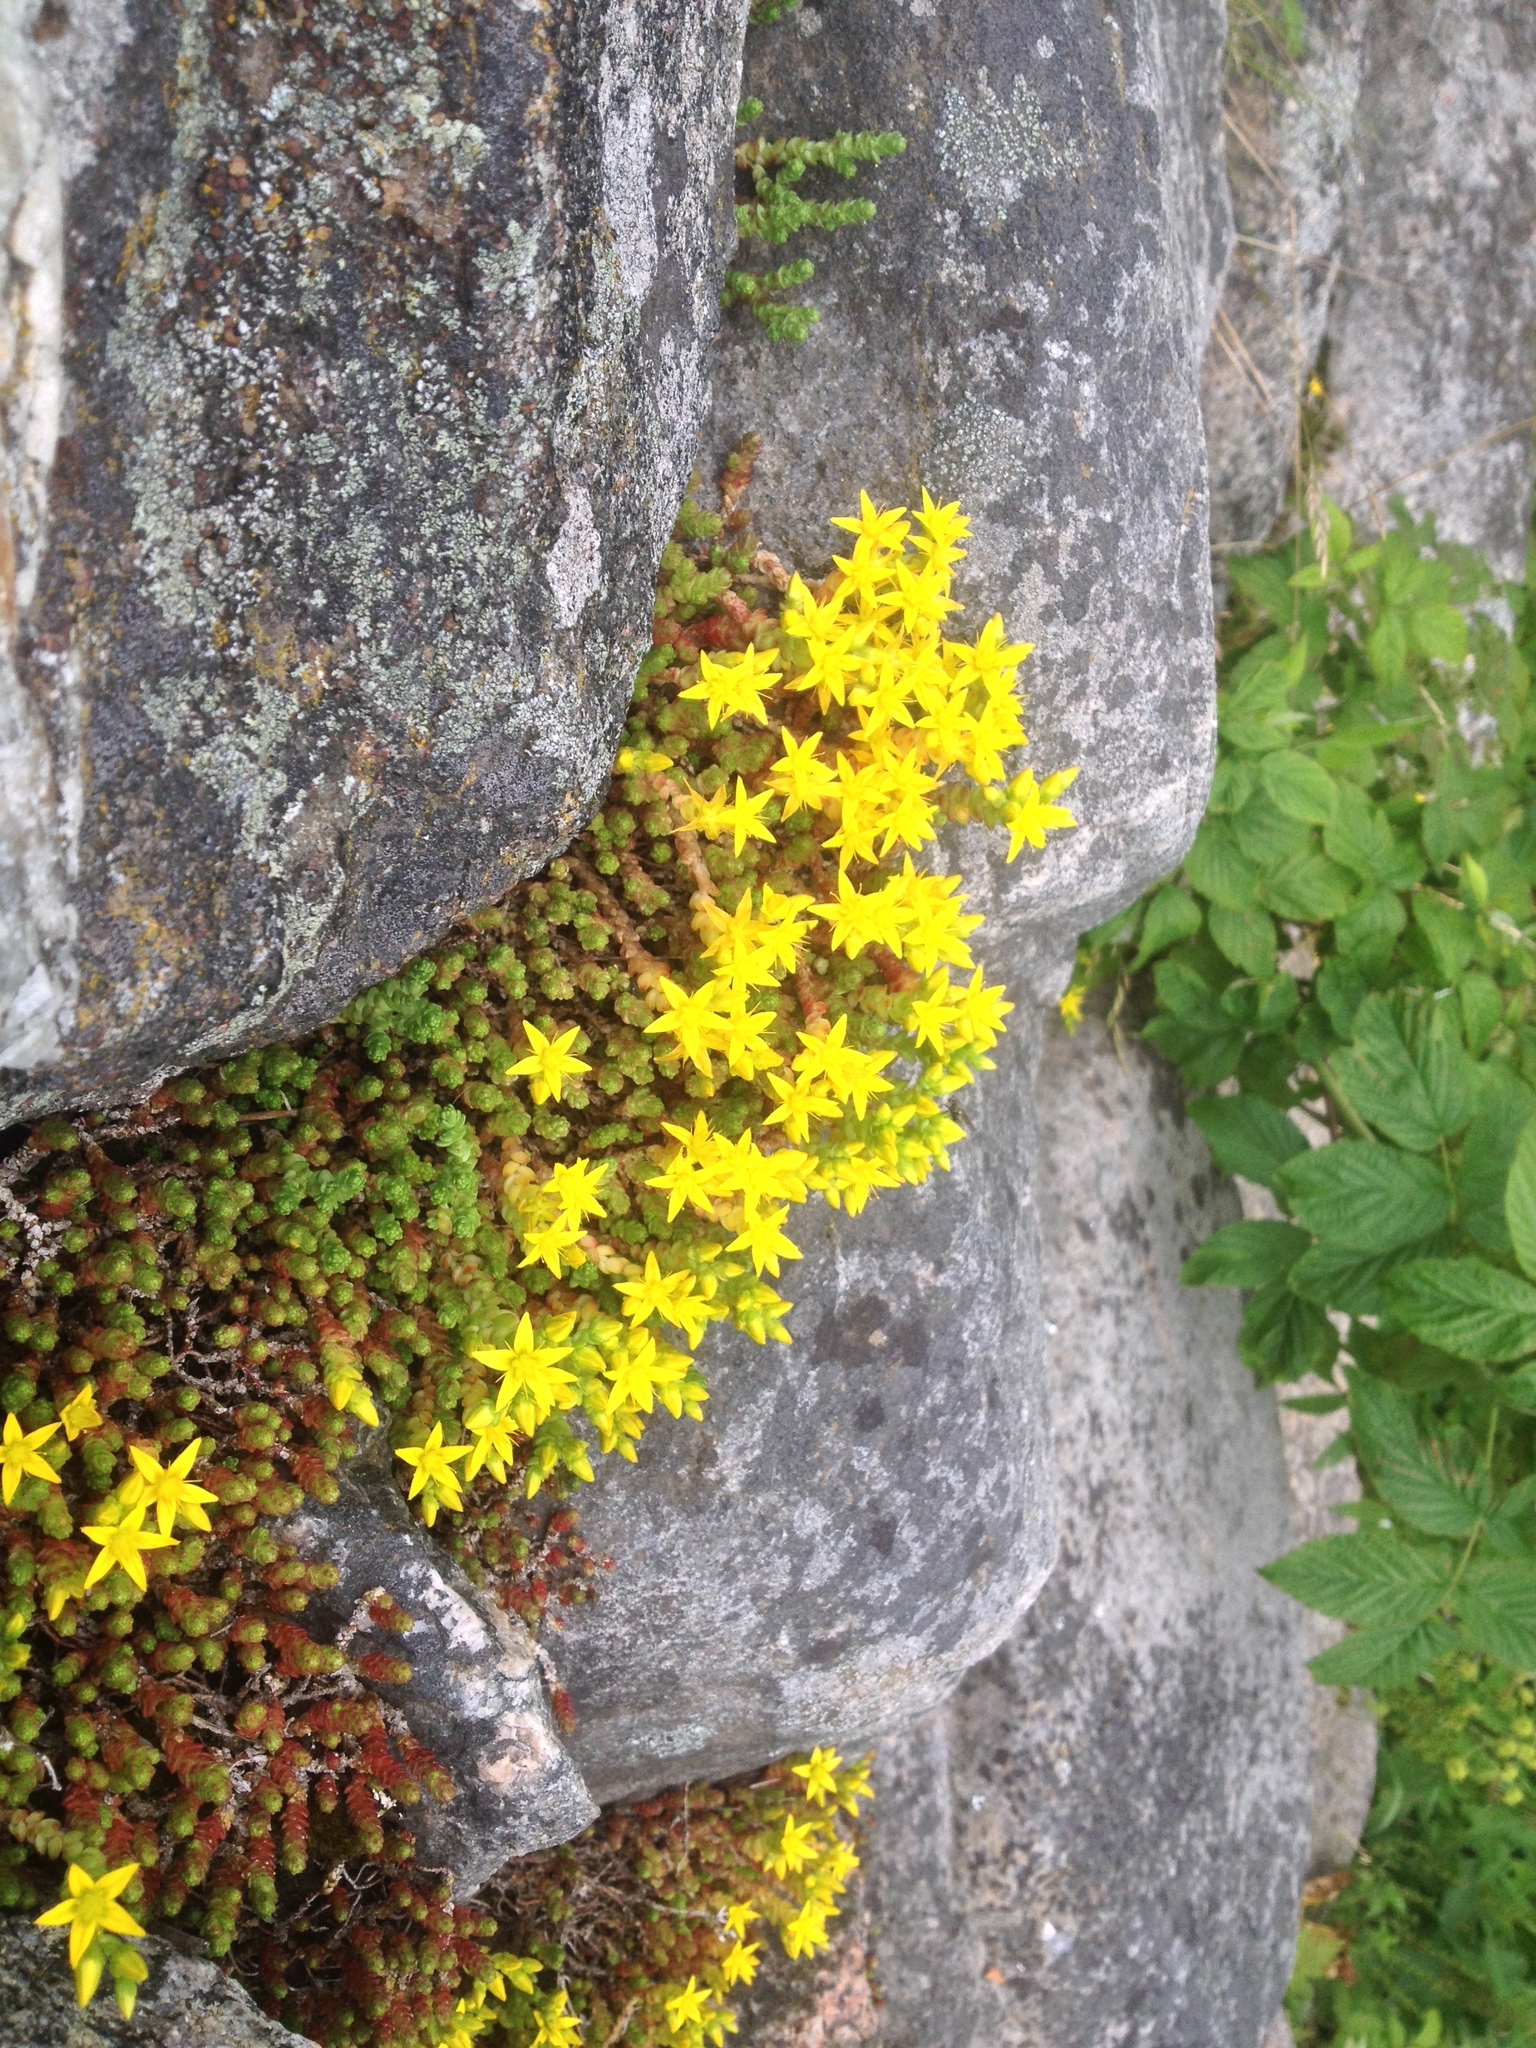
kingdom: Plantae
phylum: Tracheophyta
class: Magnoliopsida
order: Saxifragales
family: Crassulaceae
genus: Sedum
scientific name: Sedum acre
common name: Biting stonecrop
